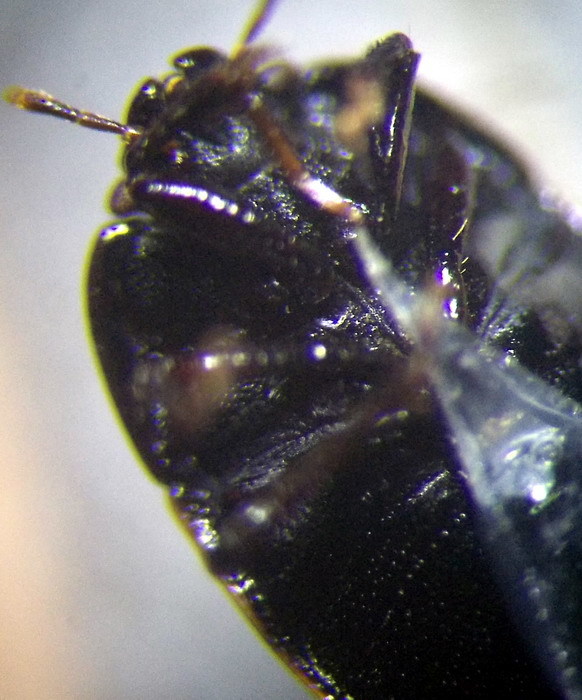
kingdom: Animalia
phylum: Arthropoda
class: Insecta
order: Hemiptera
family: Cydnidae
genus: Legnotus
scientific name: Legnotus limbosus
